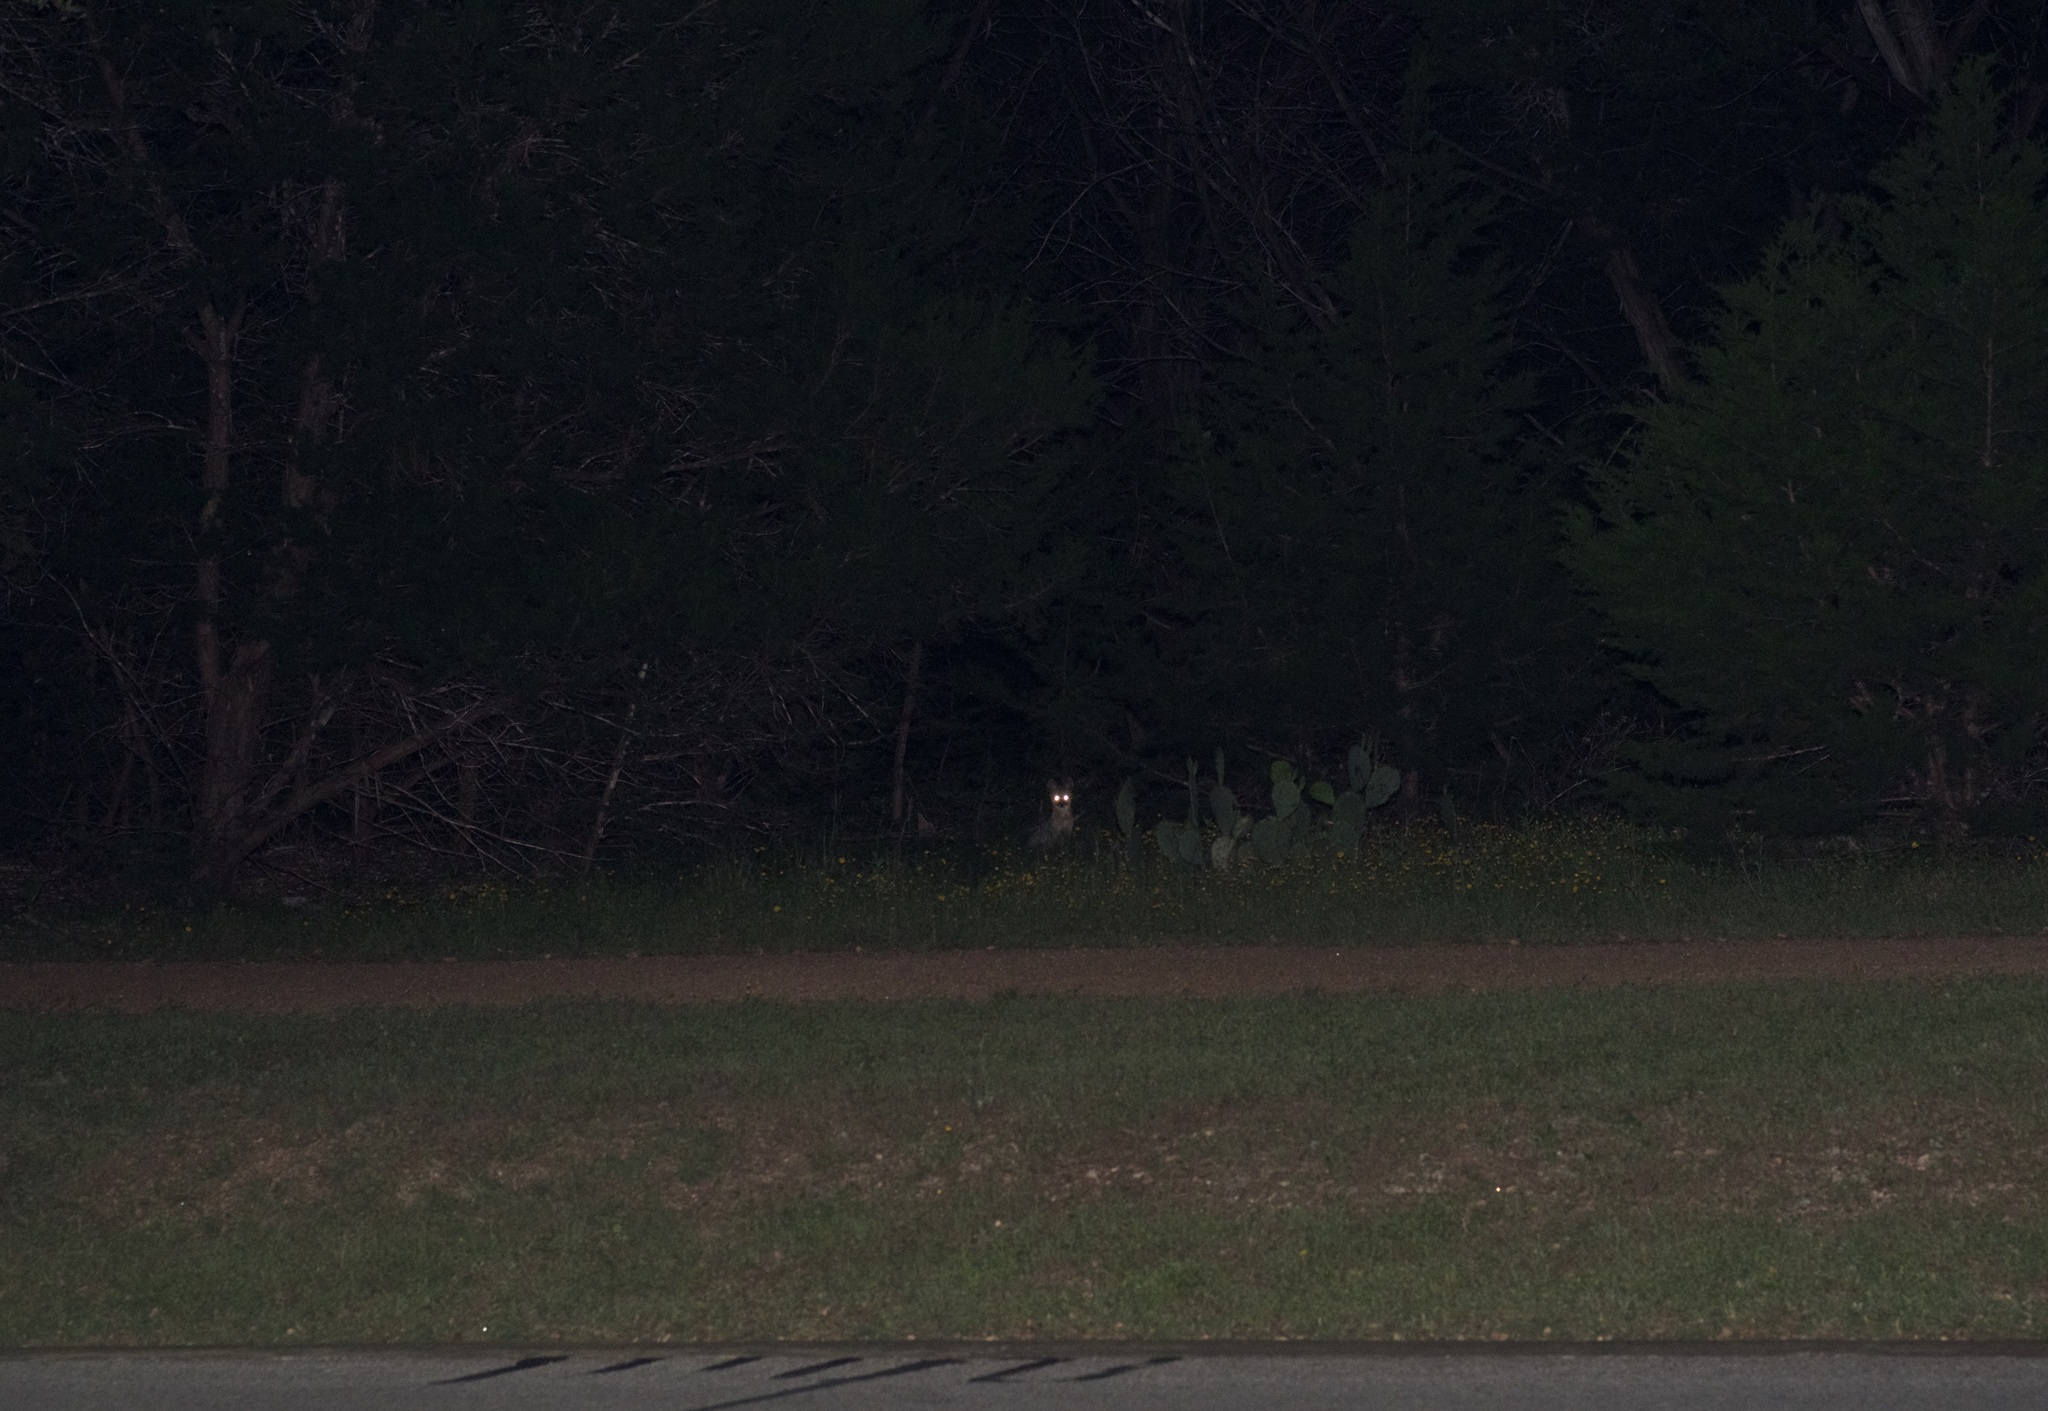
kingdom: Animalia
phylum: Chordata
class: Mammalia
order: Carnivora
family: Canidae
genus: Urocyon
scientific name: Urocyon cinereoargenteus
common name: Gray fox
